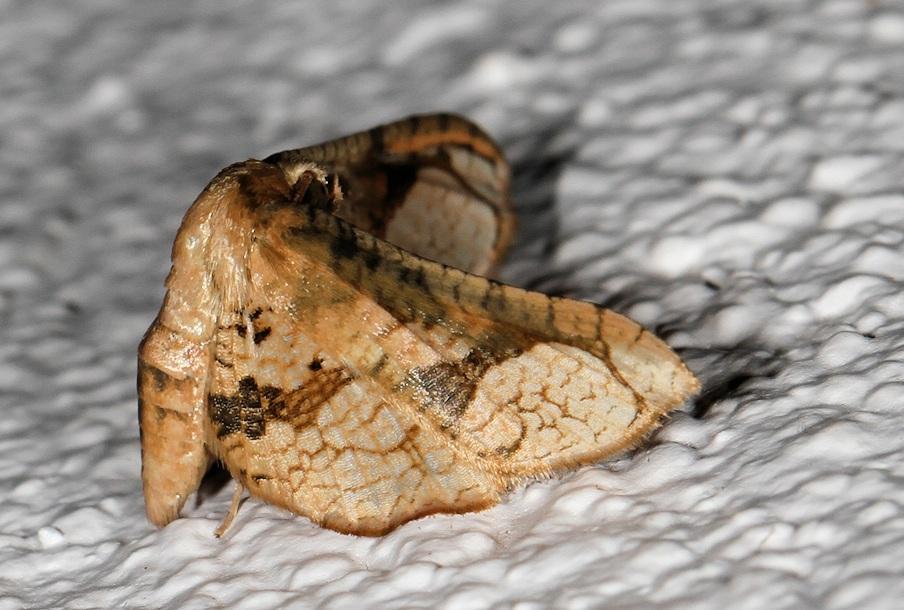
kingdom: Animalia
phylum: Arthropoda
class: Insecta
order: Lepidoptera
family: Thyrididae
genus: Kuja
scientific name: Kuja squamigera
